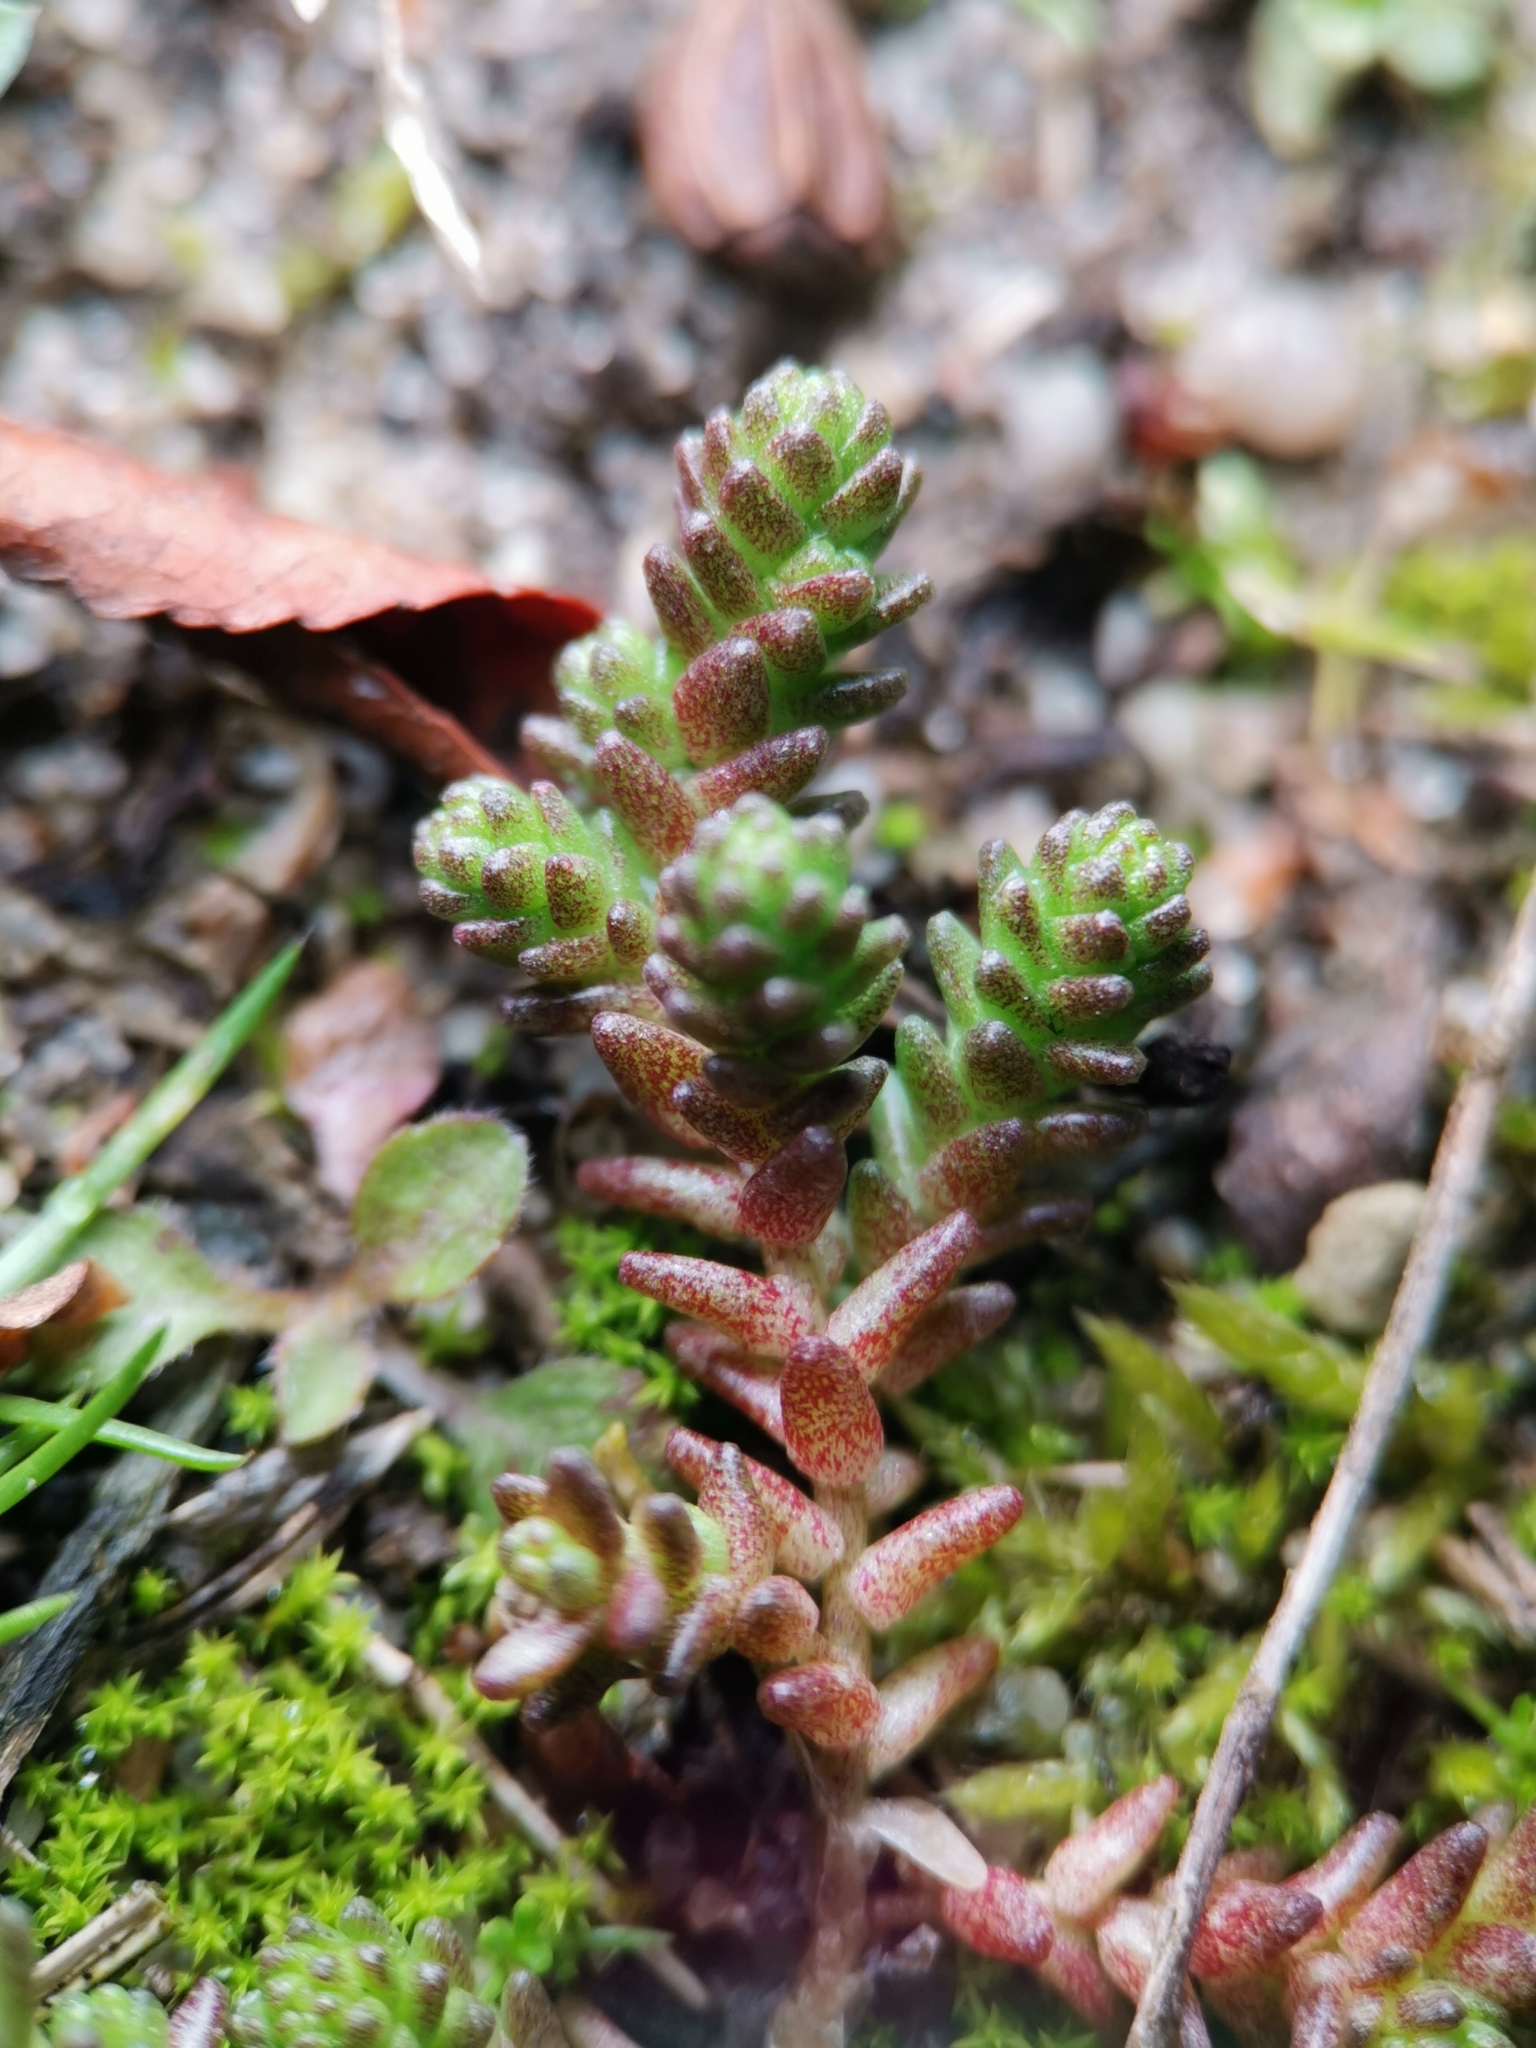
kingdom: Plantae
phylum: Tracheophyta
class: Magnoliopsida
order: Saxifragales
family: Crassulaceae
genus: Sedum
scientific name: Sedum acre
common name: Biting stonecrop
